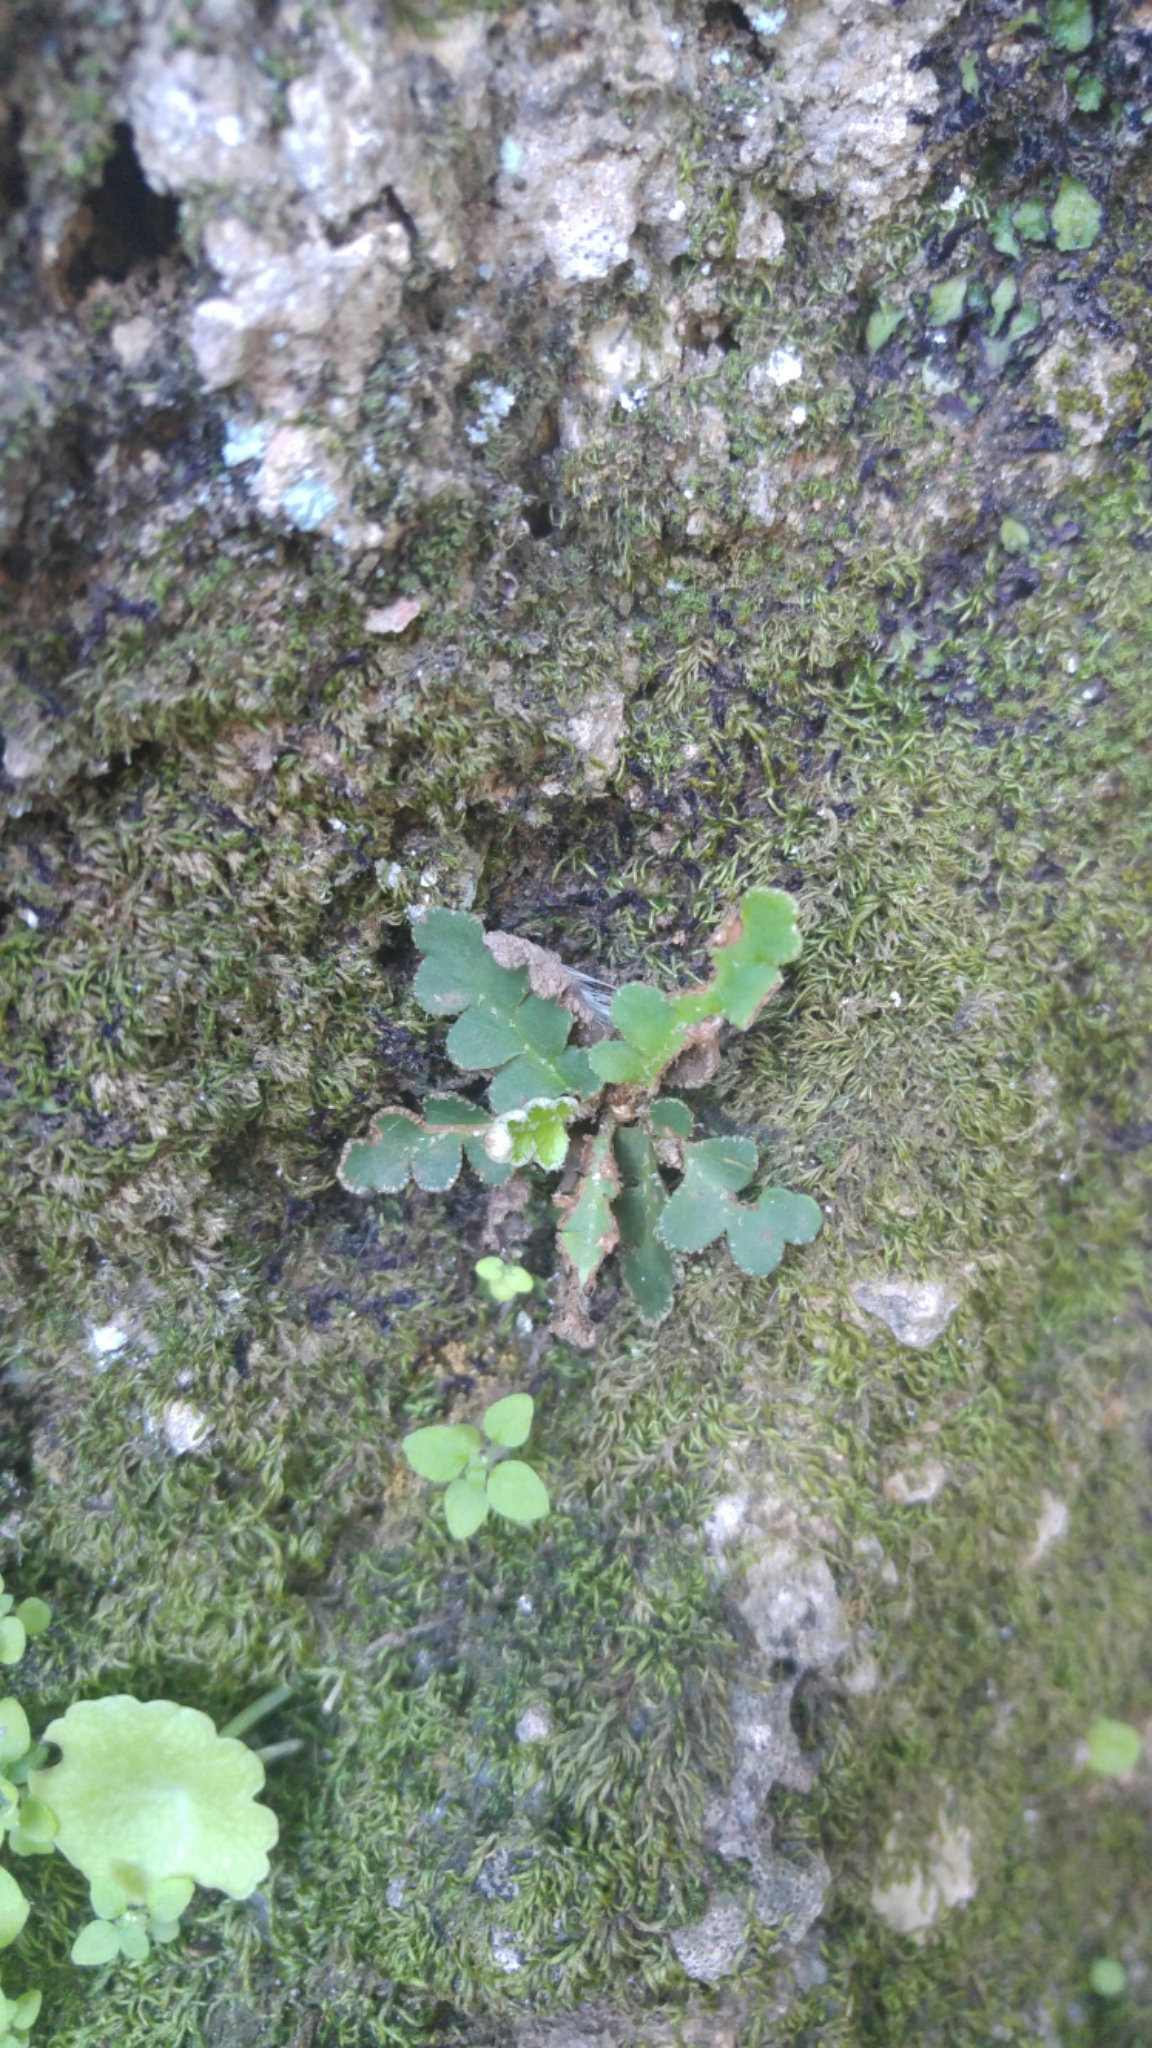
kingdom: Plantae
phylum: Tracheophyta
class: Polypodiopsida
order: Polypodiales
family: Aspleniaceae
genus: Asplenium
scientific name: Asplenium ceterach
